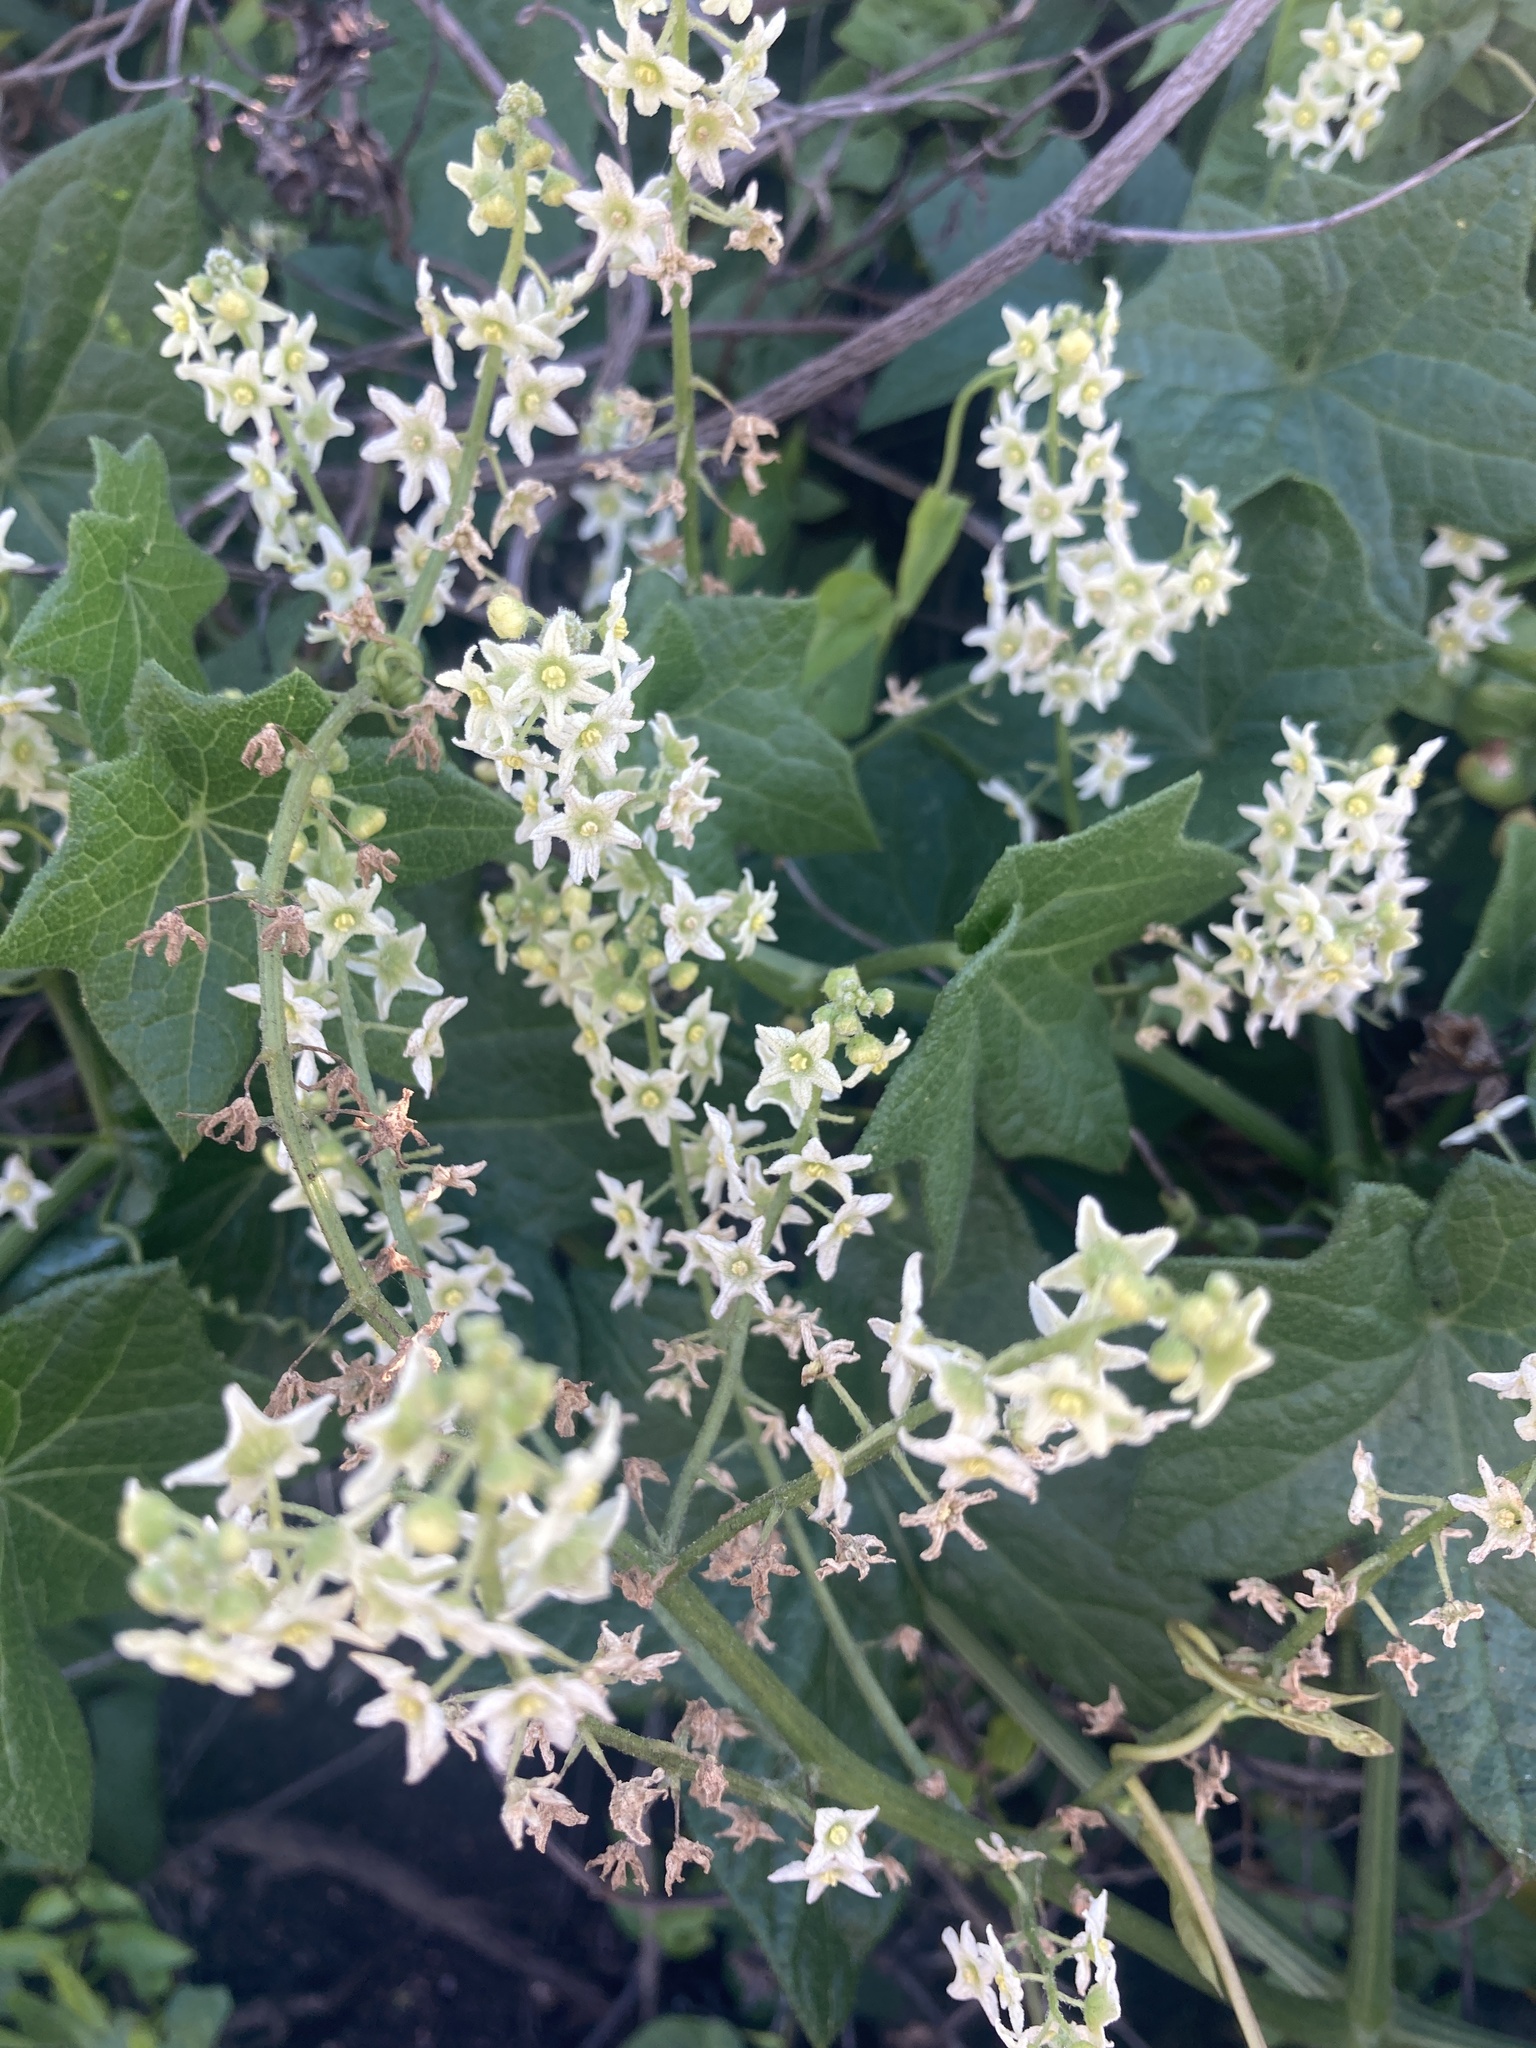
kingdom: Plantae
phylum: Tracheophyta
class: Magnoliopsida
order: Cucurbitales
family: Cucurbitaceae
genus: Marah
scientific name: Marah fabacea
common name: California manroot
